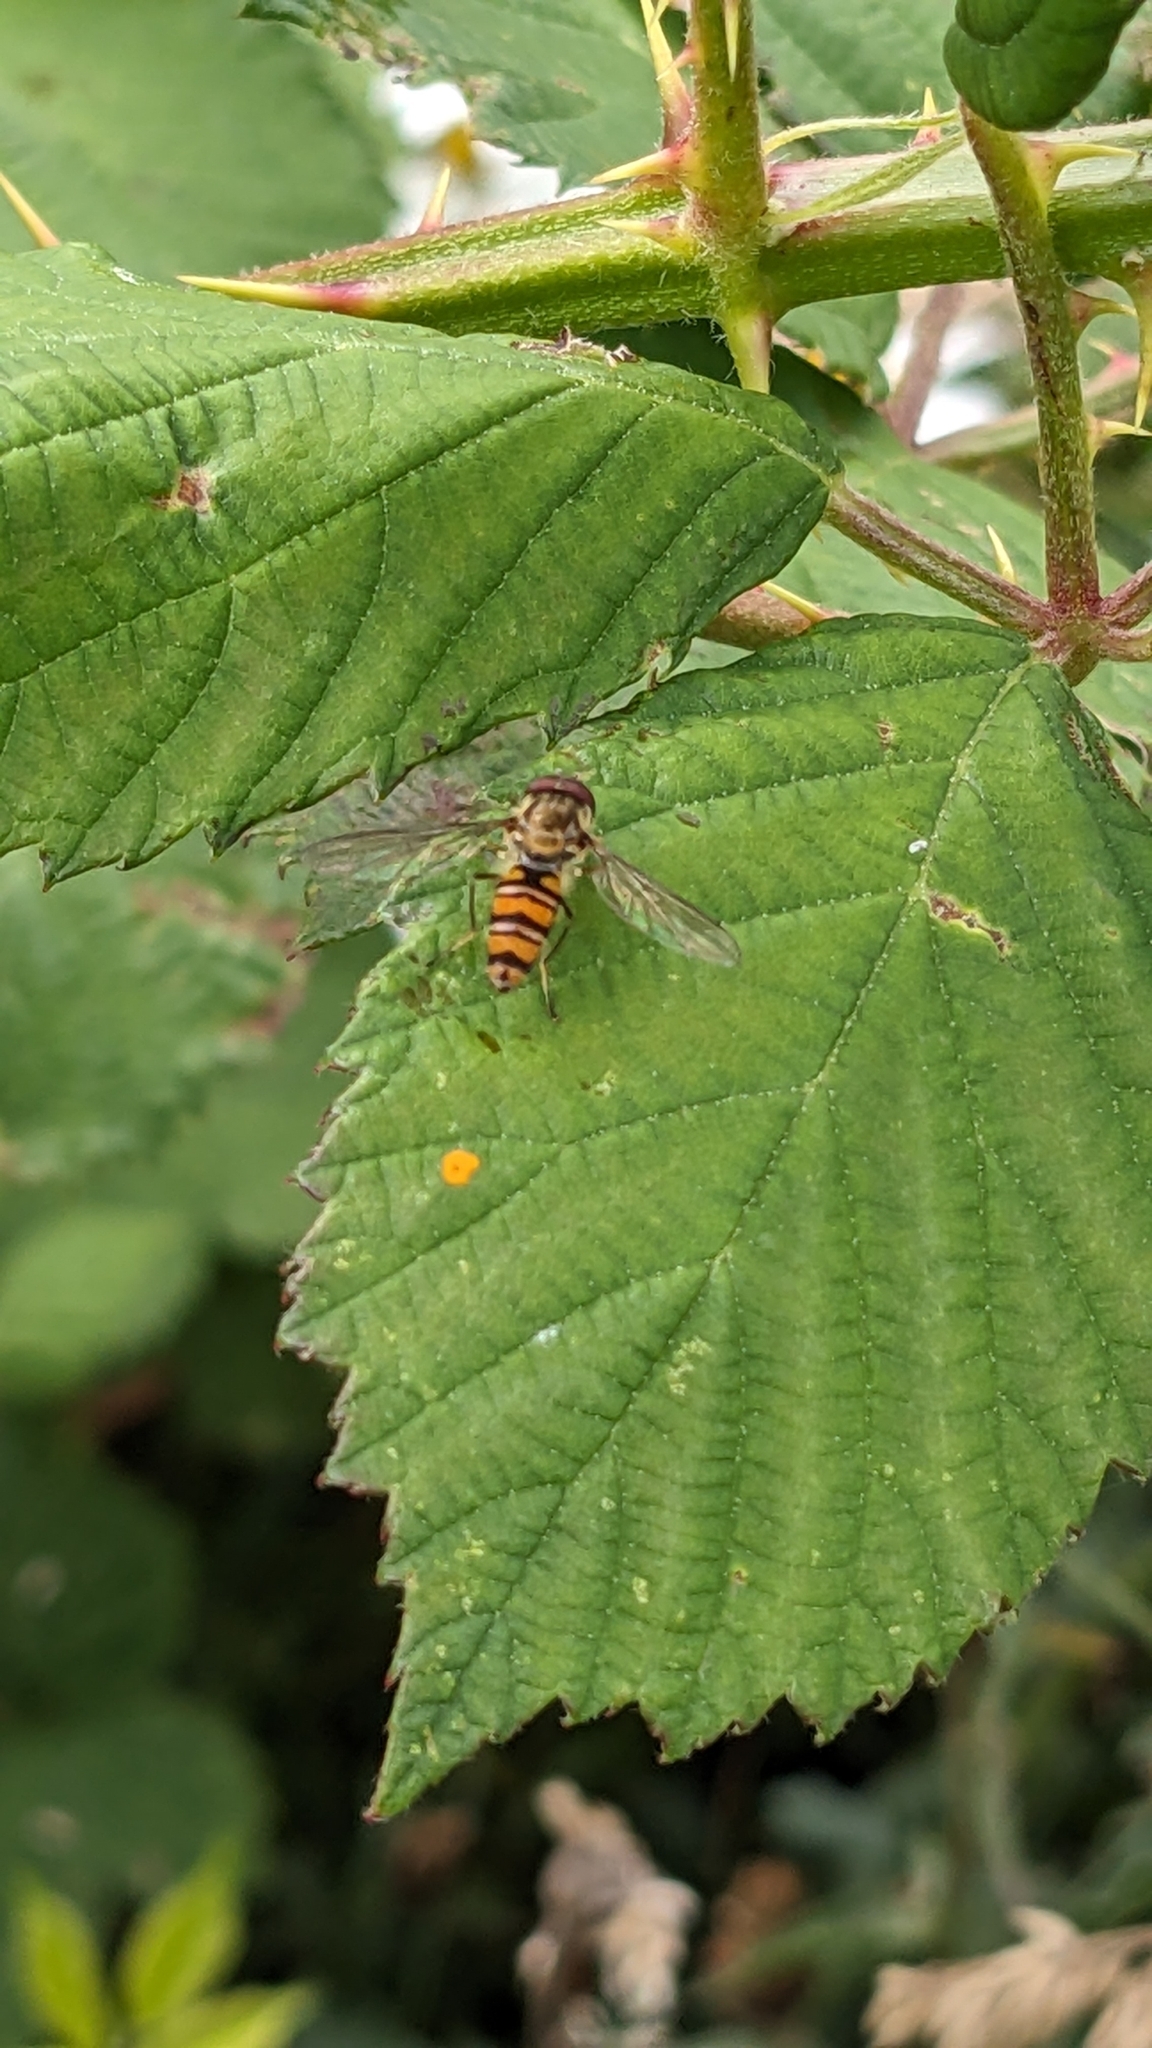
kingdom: Animalia
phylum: Arthropoda
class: Insecta
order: Diptera
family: Syrphidae
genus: Episyrphus
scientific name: Episyrphus balteatus
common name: Marmalade hoverfly
